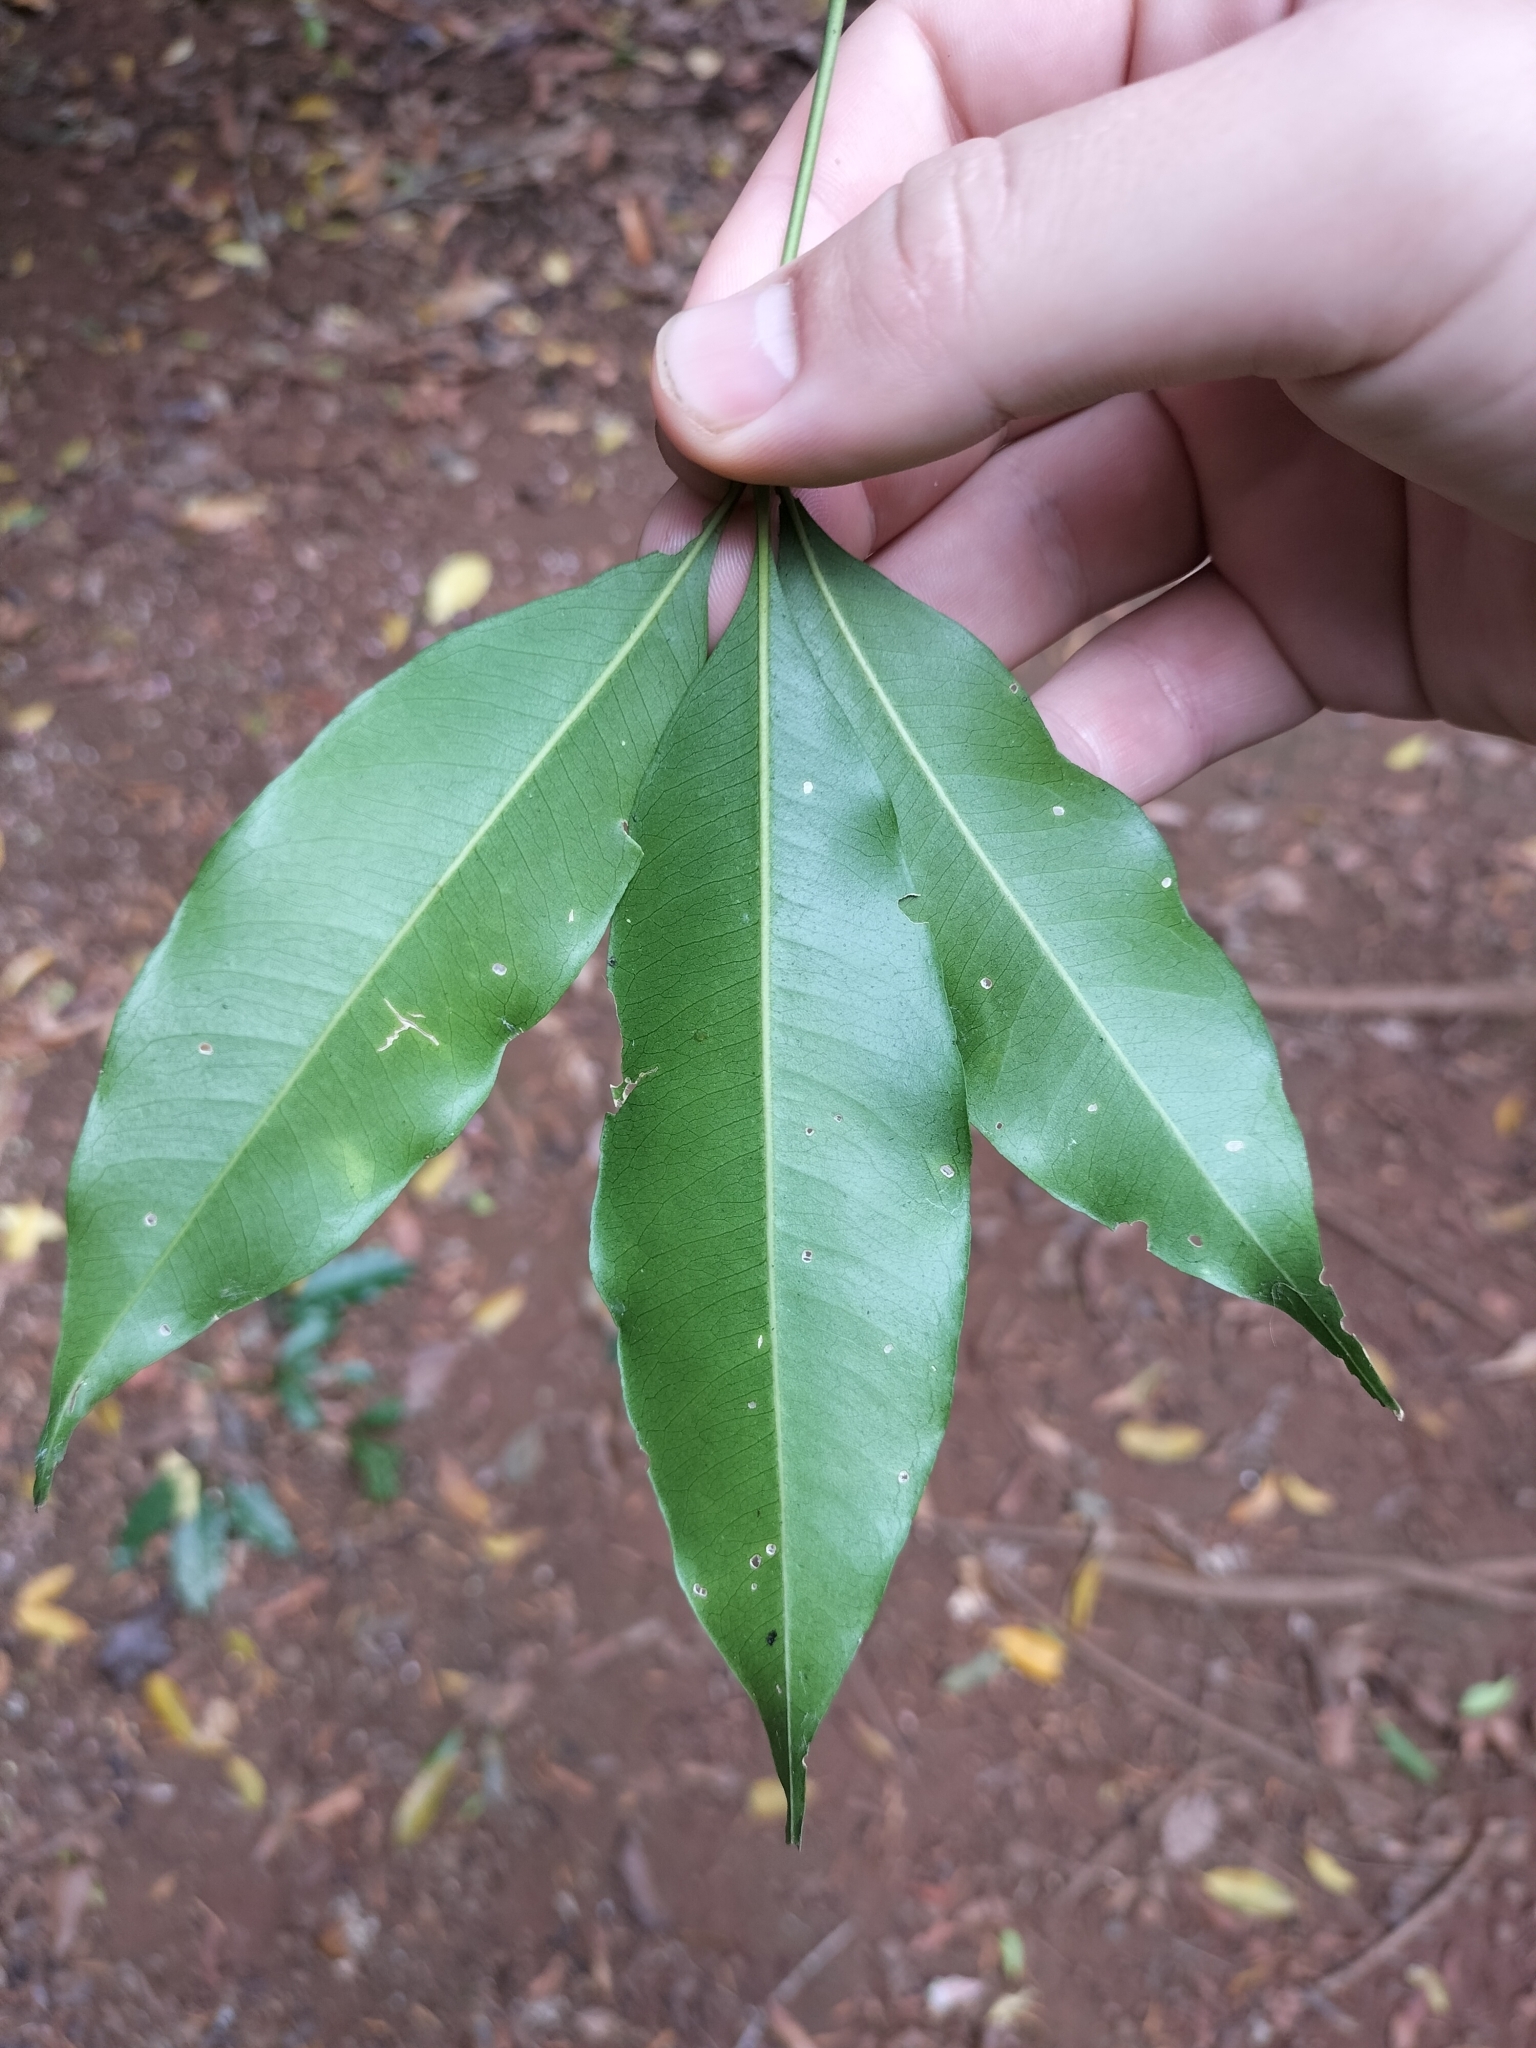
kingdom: Plantae
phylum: Tracheophyta
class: Magnoliopsida
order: Sapindales
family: Rutaceae
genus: Melicope
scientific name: Melicope rubra
